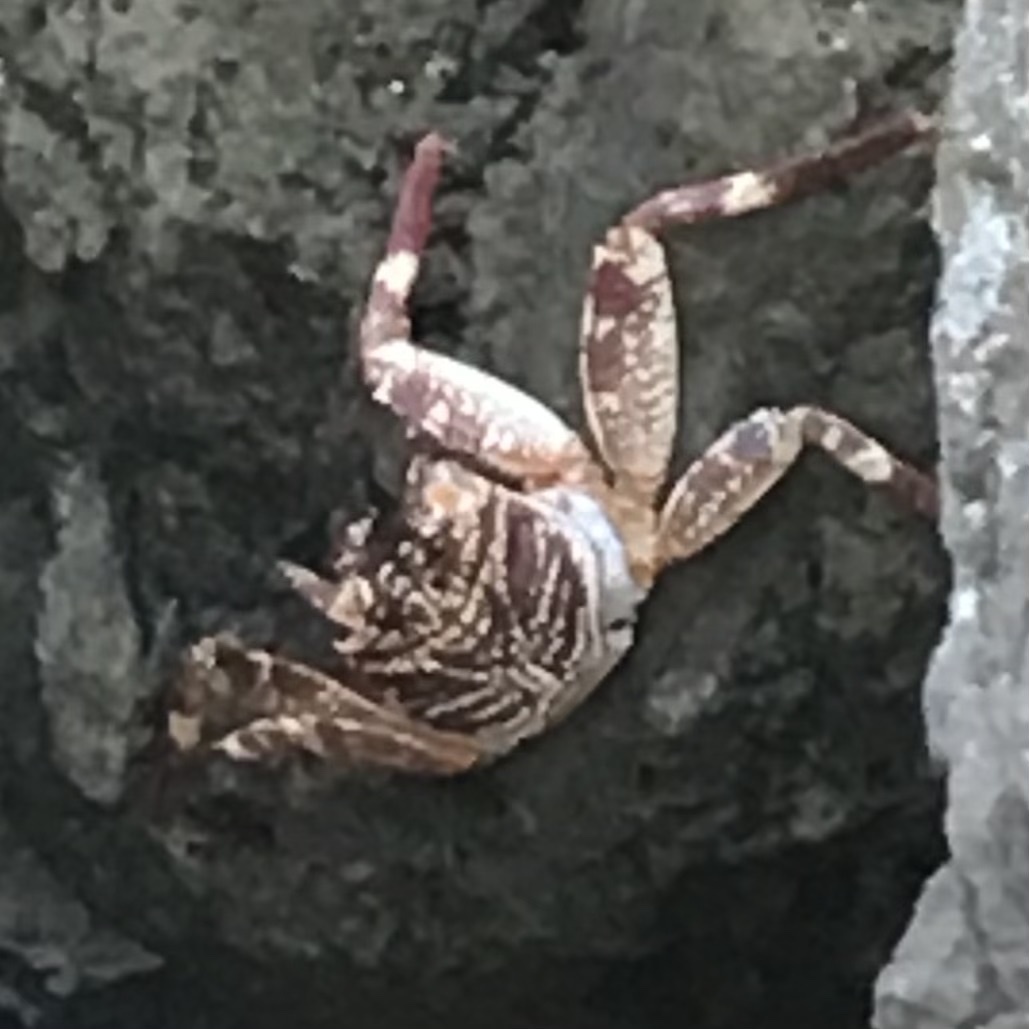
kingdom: Animalia
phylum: Arthropoda
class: Malacostraca
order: Decapoda
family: Grapsidae
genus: Grapsus
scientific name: Grapsus tenuicrustatus
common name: Natal lightfoot crab
